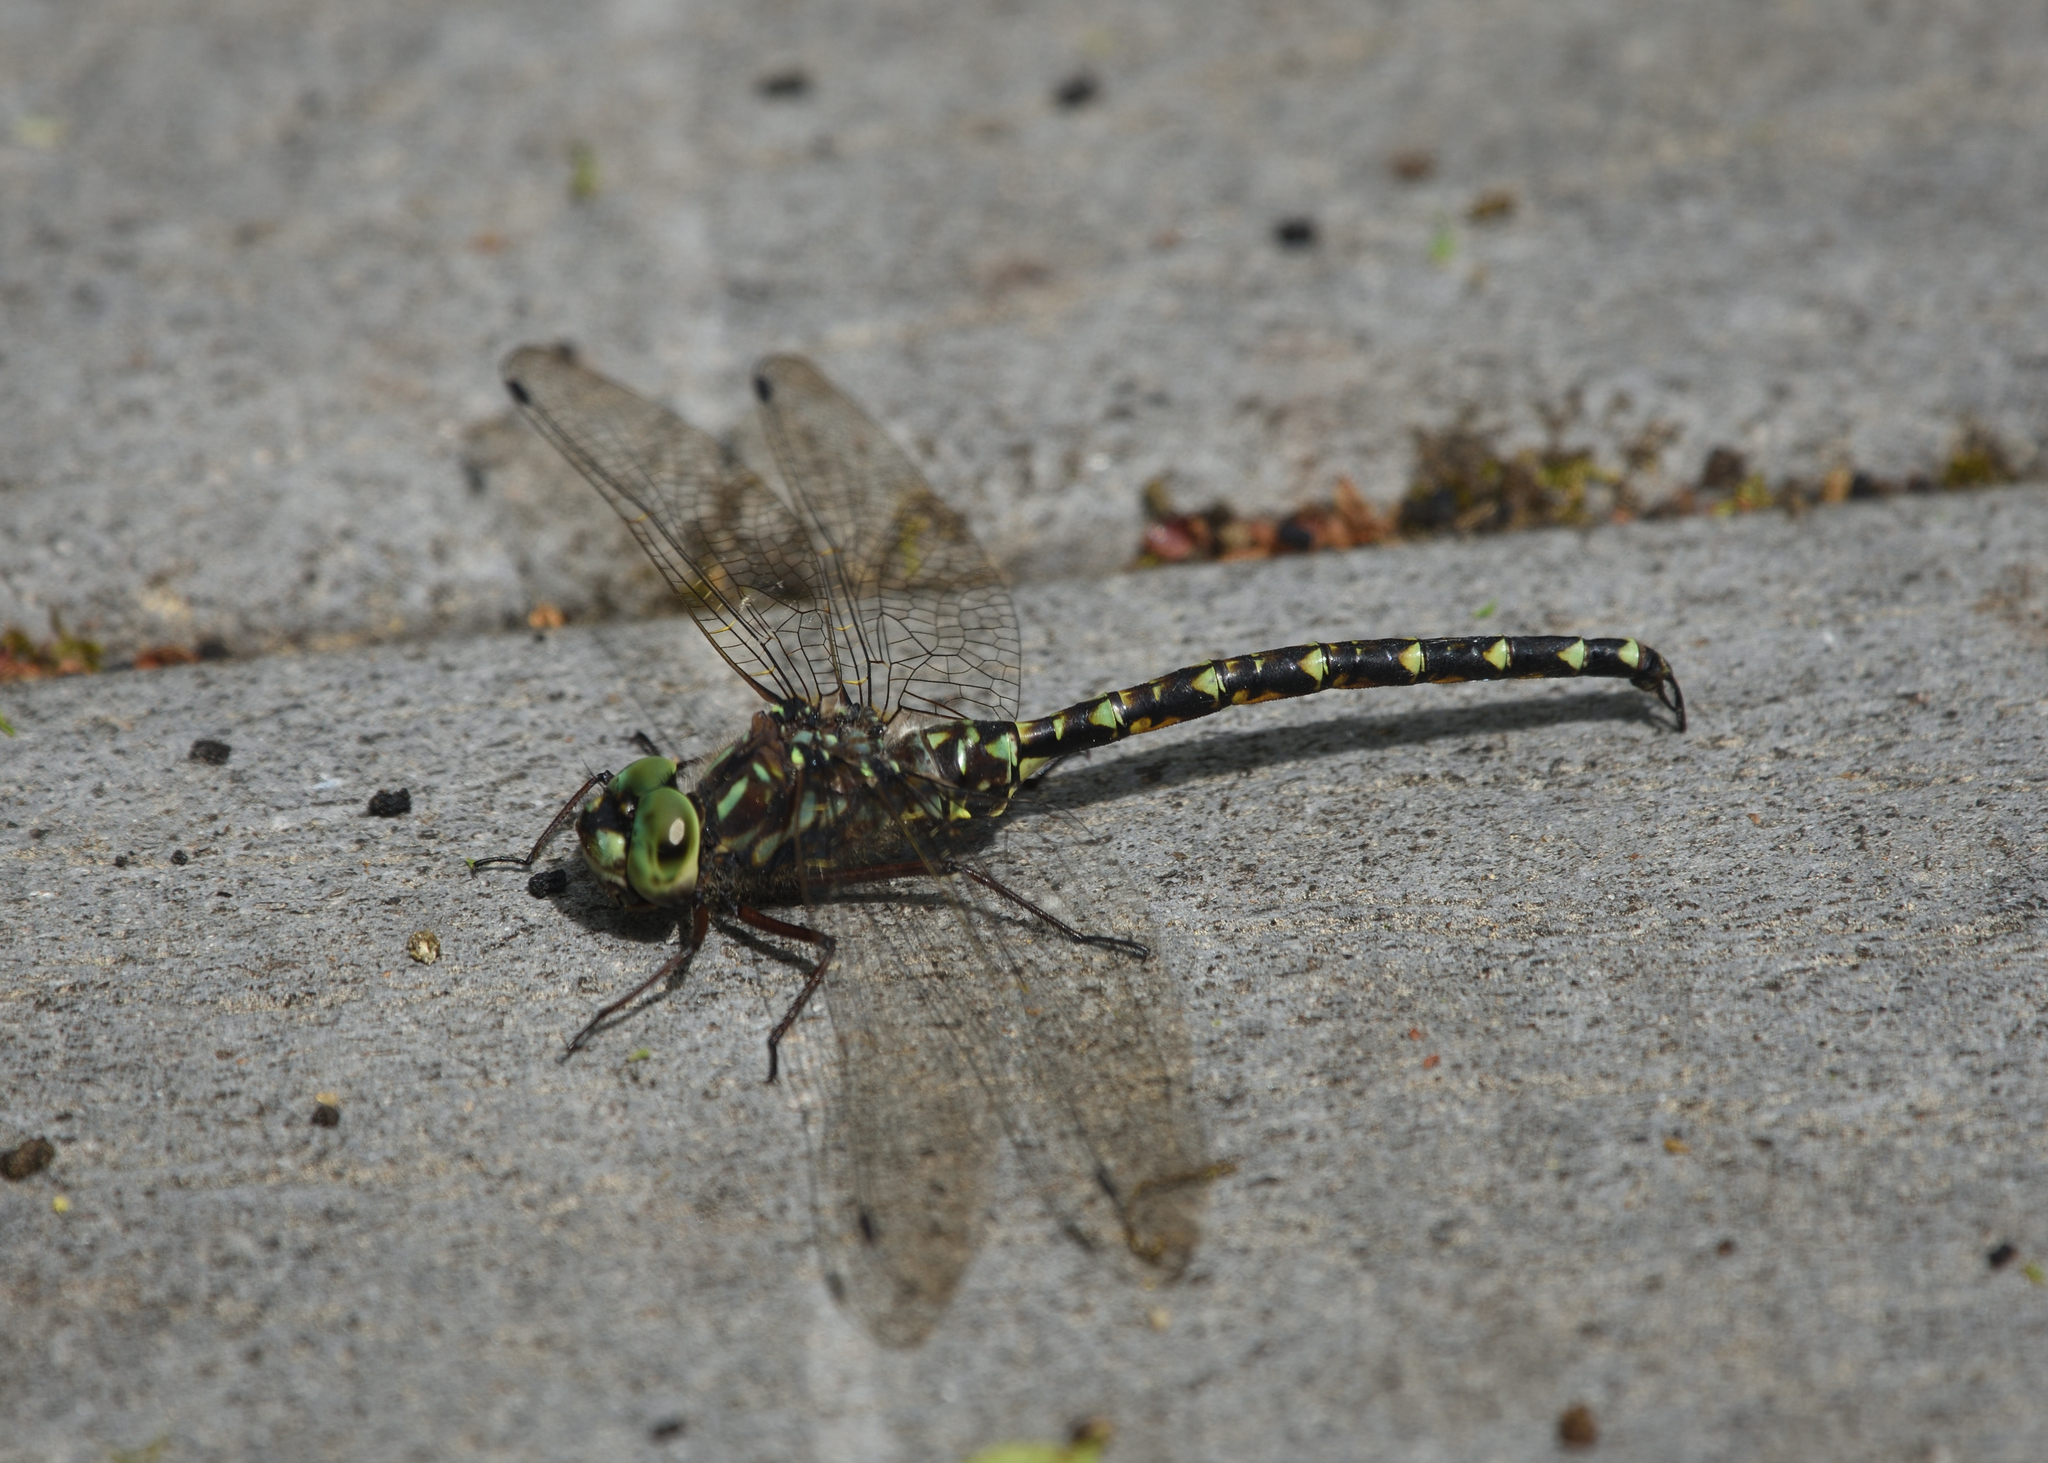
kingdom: Animalia
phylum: Arthropoda
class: Insecta
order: Odonata
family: Aeshnidae
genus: Gomphaeschna
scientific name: Gomphaeschna furcillata
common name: Harlequin darner
